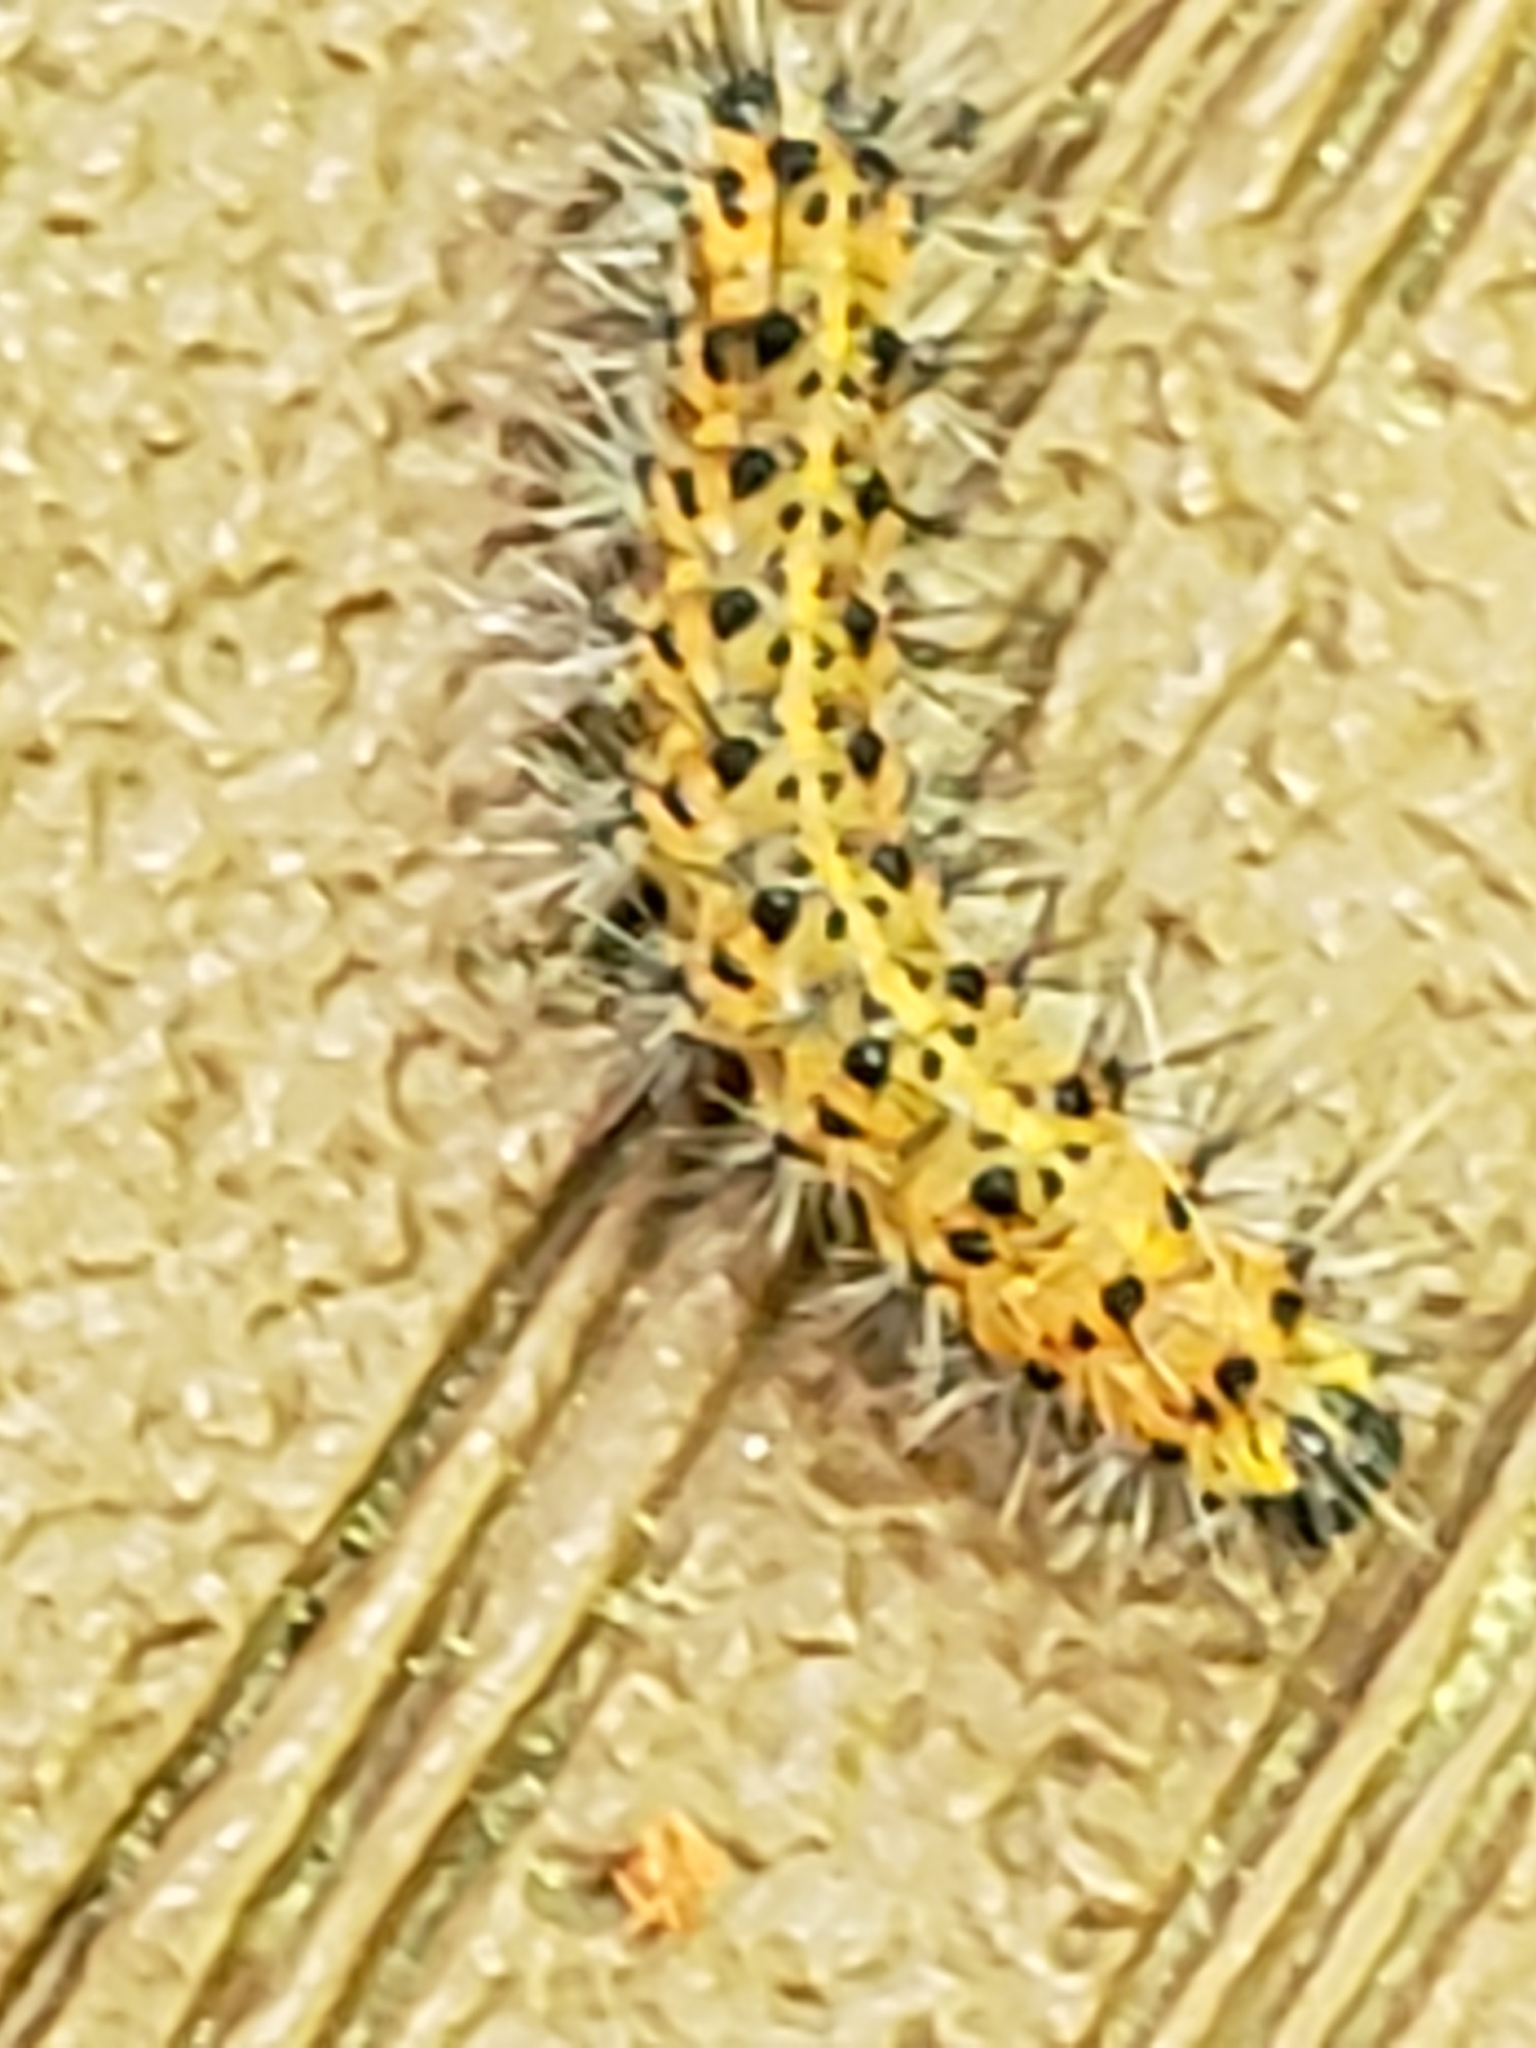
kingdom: Animalia
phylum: Arthropoda
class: Insecta
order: Lepidoptera
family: Erebidae
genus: Estigmene
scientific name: Estigmene acrea
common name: Salt marsh moth
